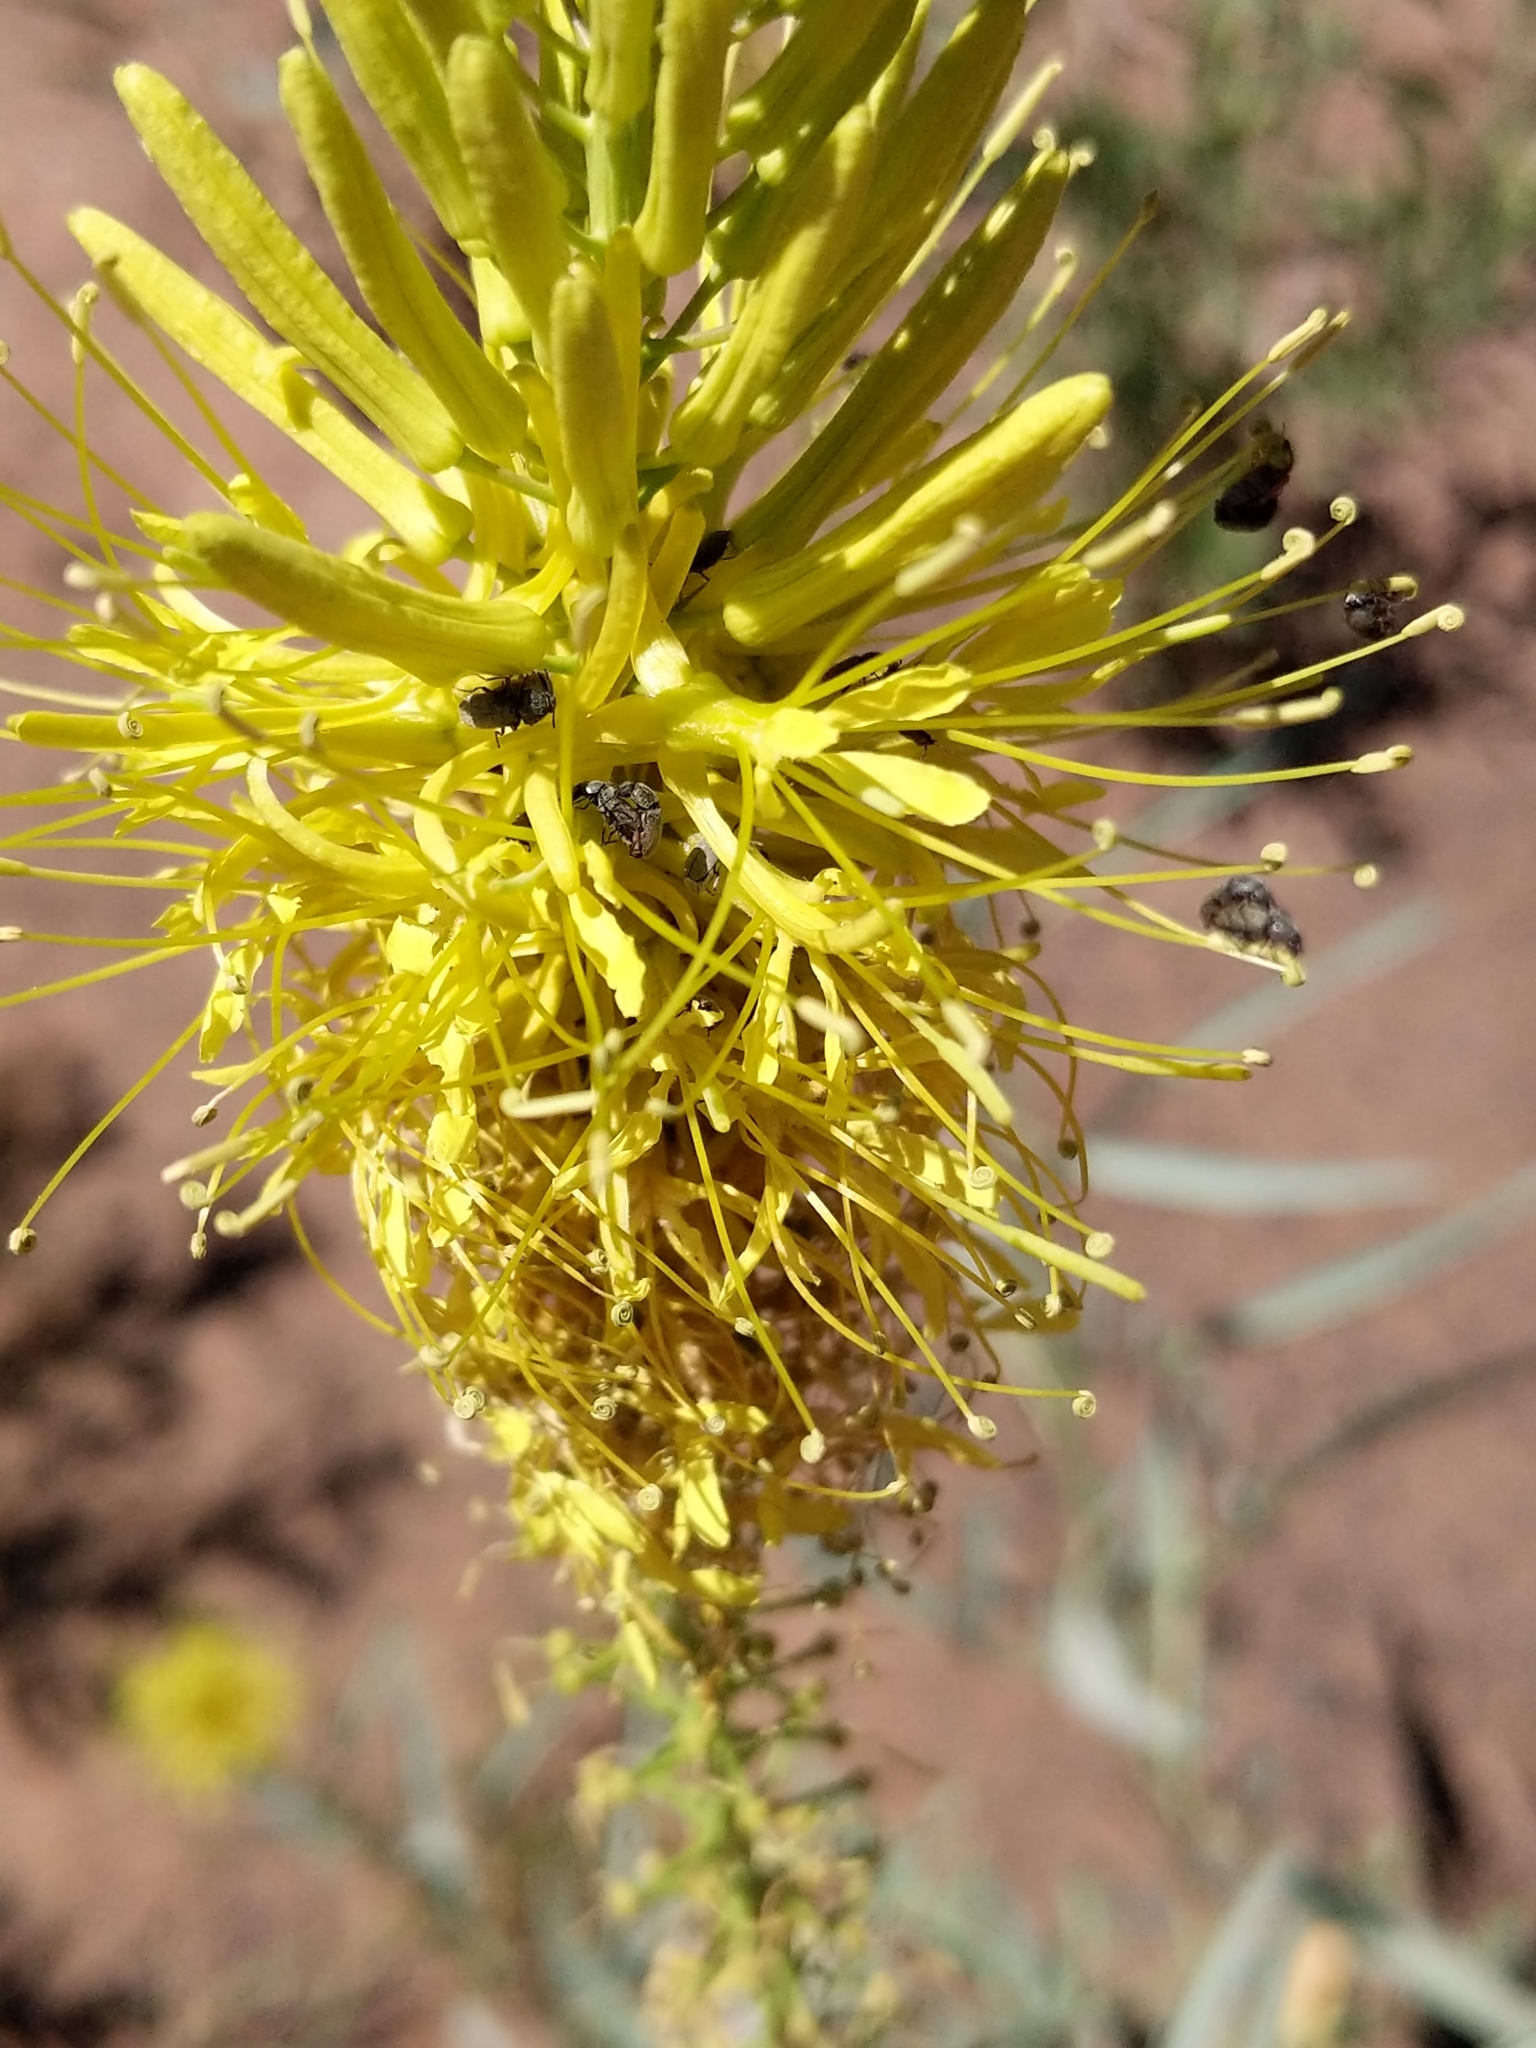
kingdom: Plantae
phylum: Tracheophyta
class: Magnoliopsida
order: Brassicales
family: Brassicaceae
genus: Stanleya
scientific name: Stanleya pinnata
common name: Prince's-plume
